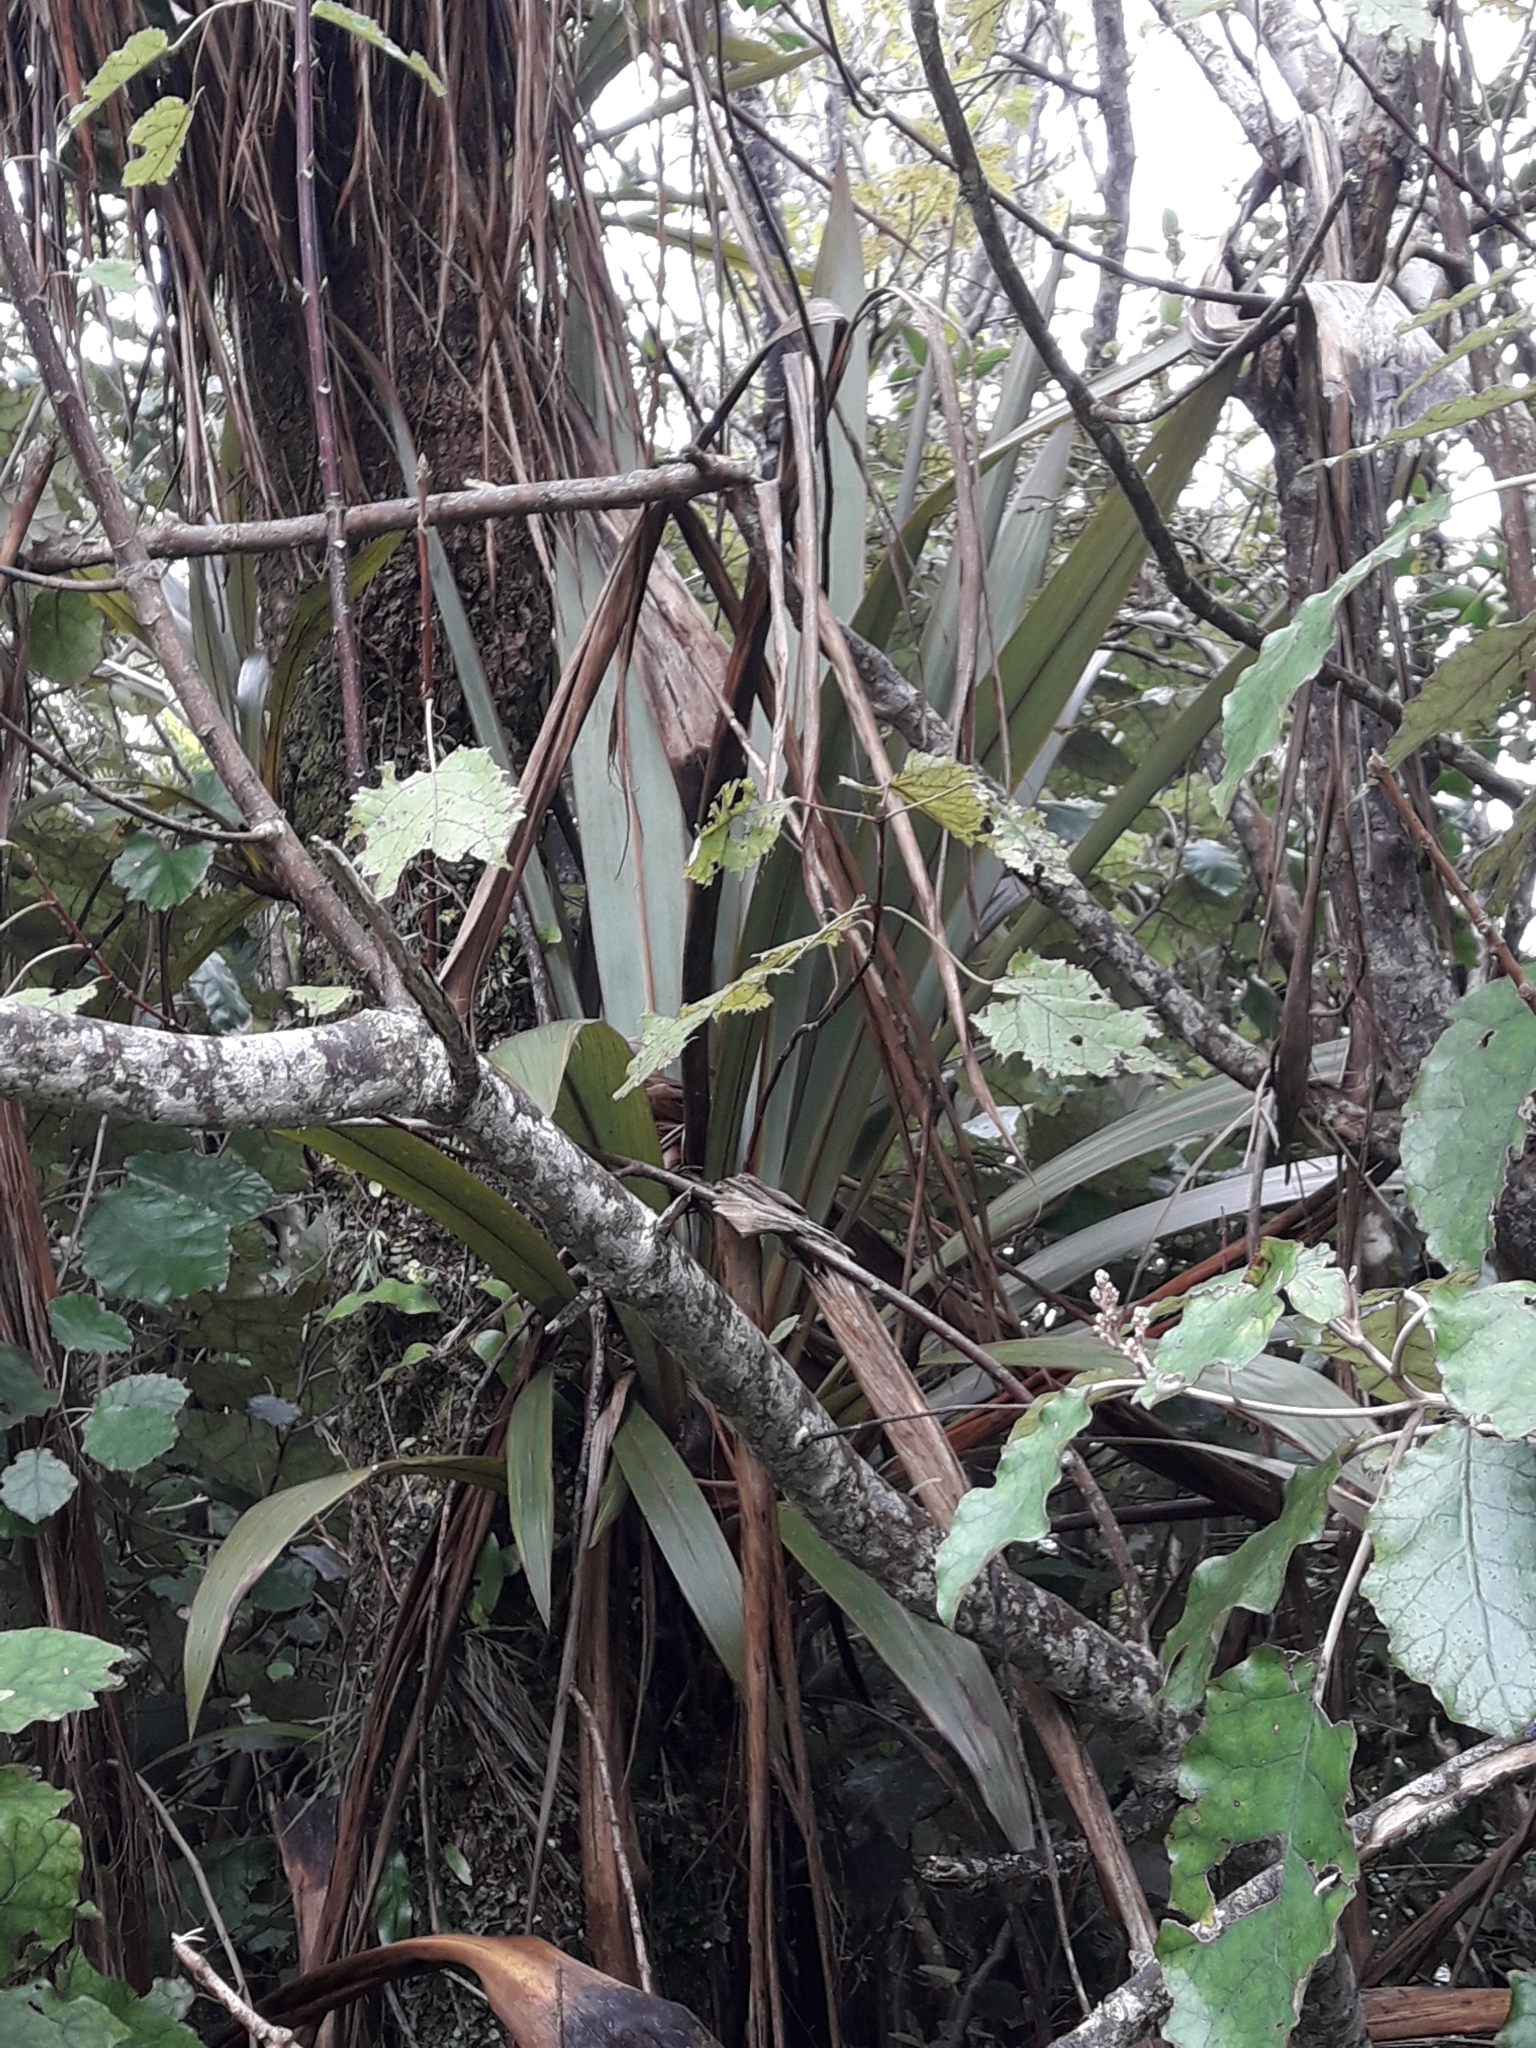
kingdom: Plantae
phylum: Tracheophyta
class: Liliopsida
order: Asparagales
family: Asparagaceae
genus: Cordyline
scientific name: Cordyline indivisa
